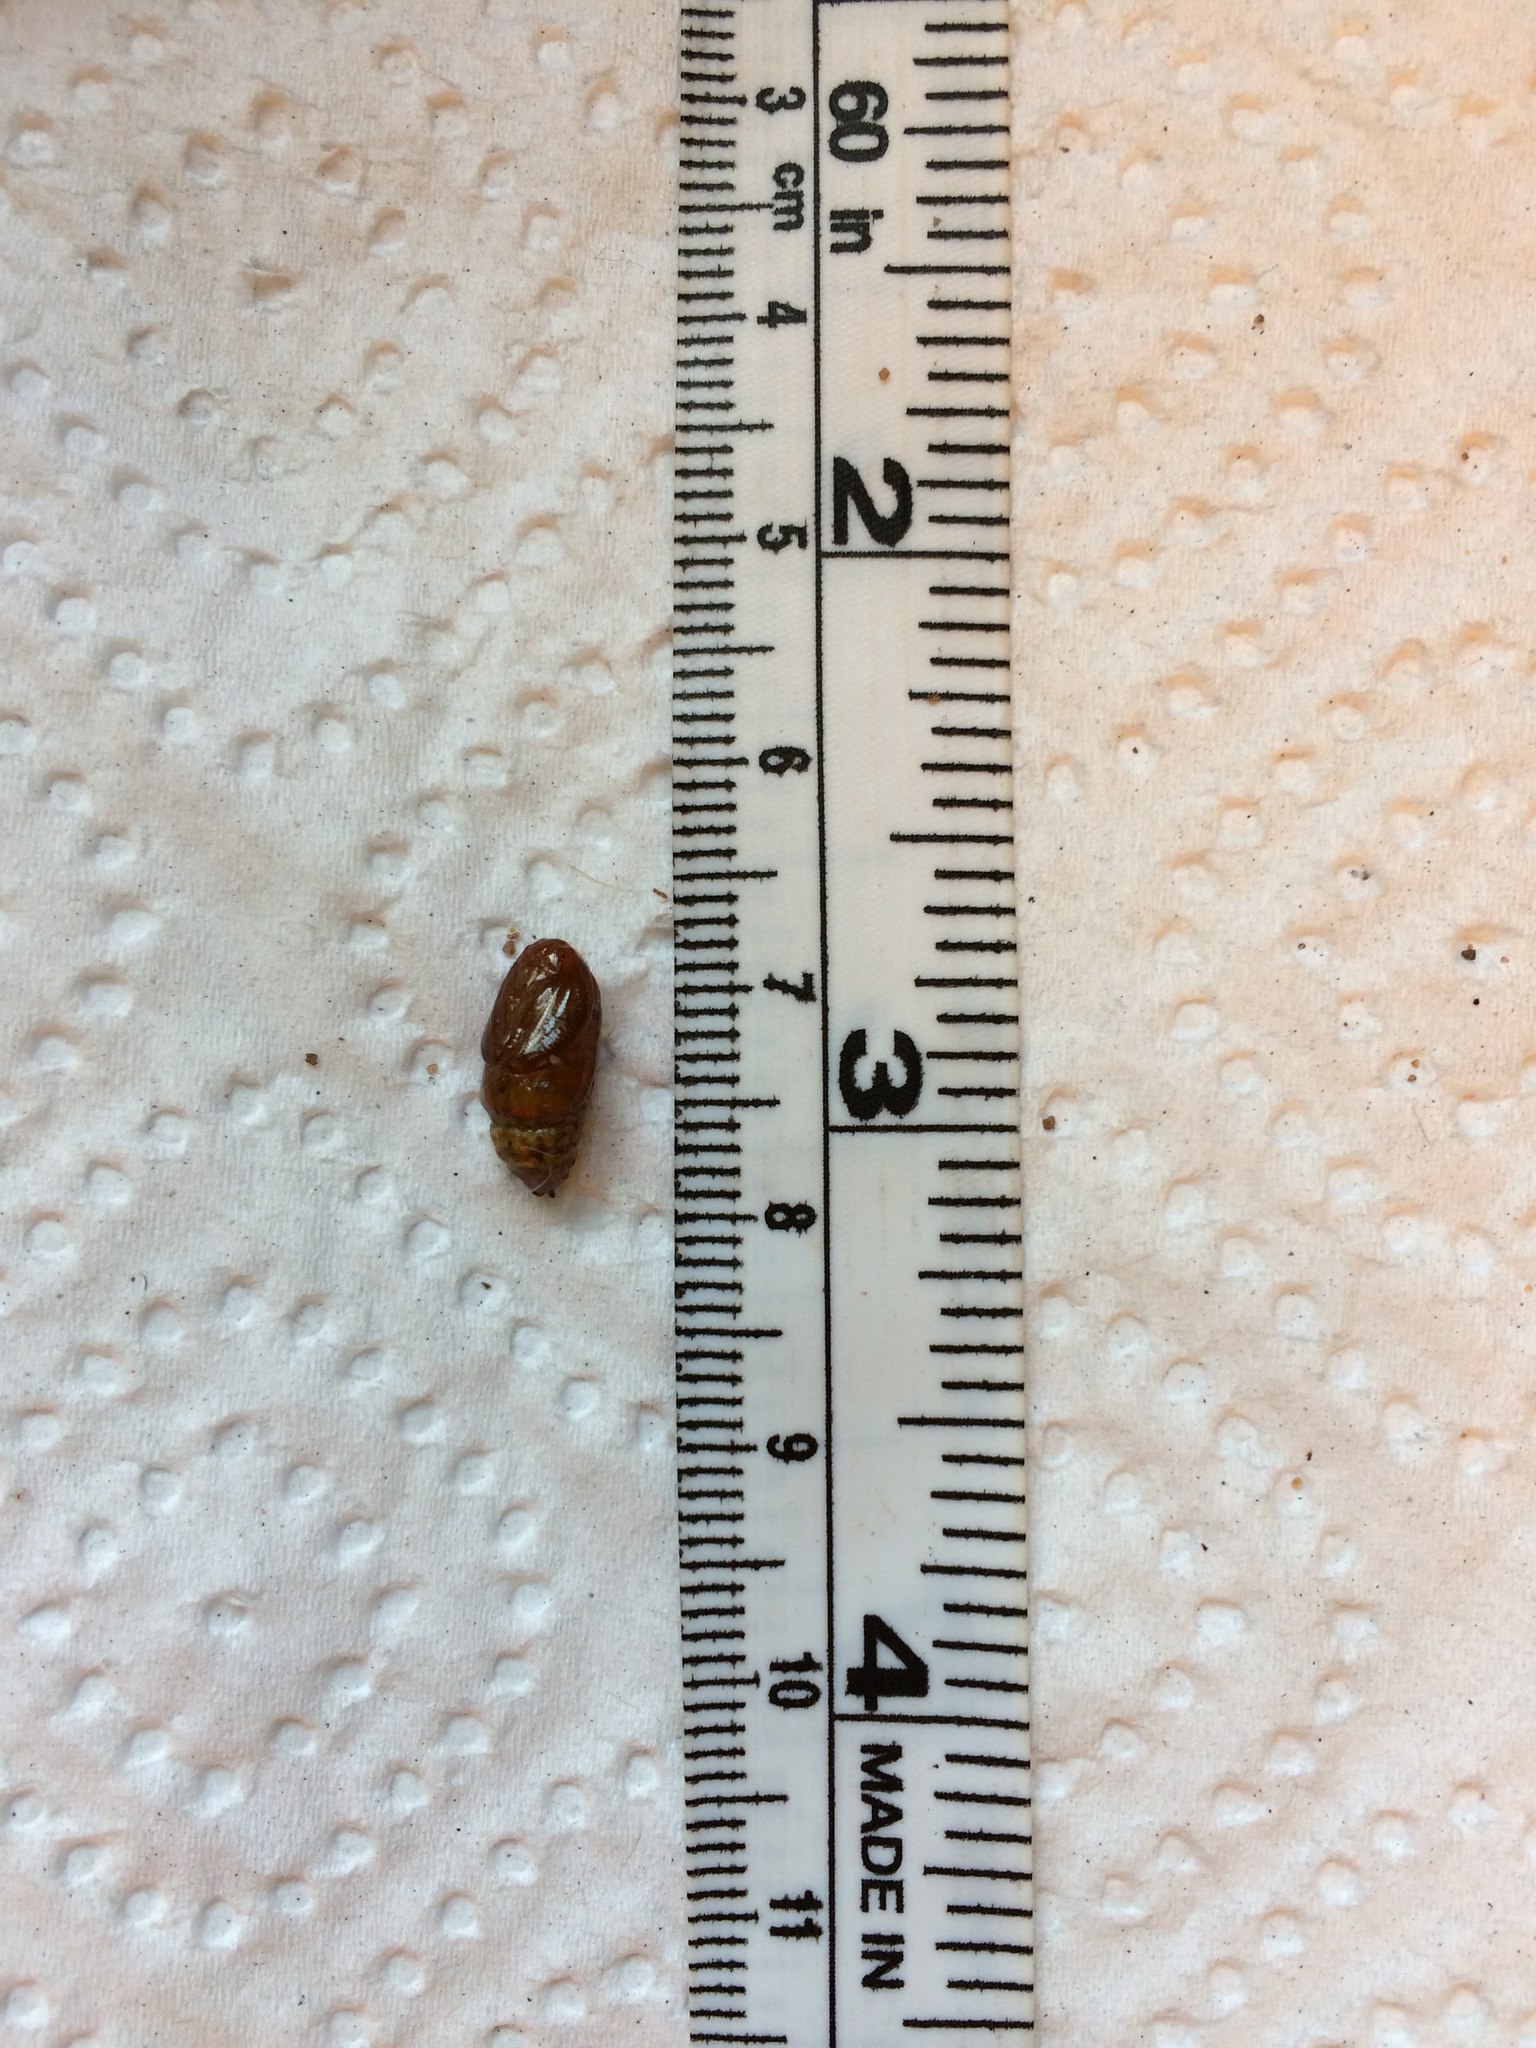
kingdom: Animalia
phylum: Arthropoda
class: Insecta
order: Lepidoptera
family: Erebidae
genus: Euproctis
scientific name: Euproctis punctifera
